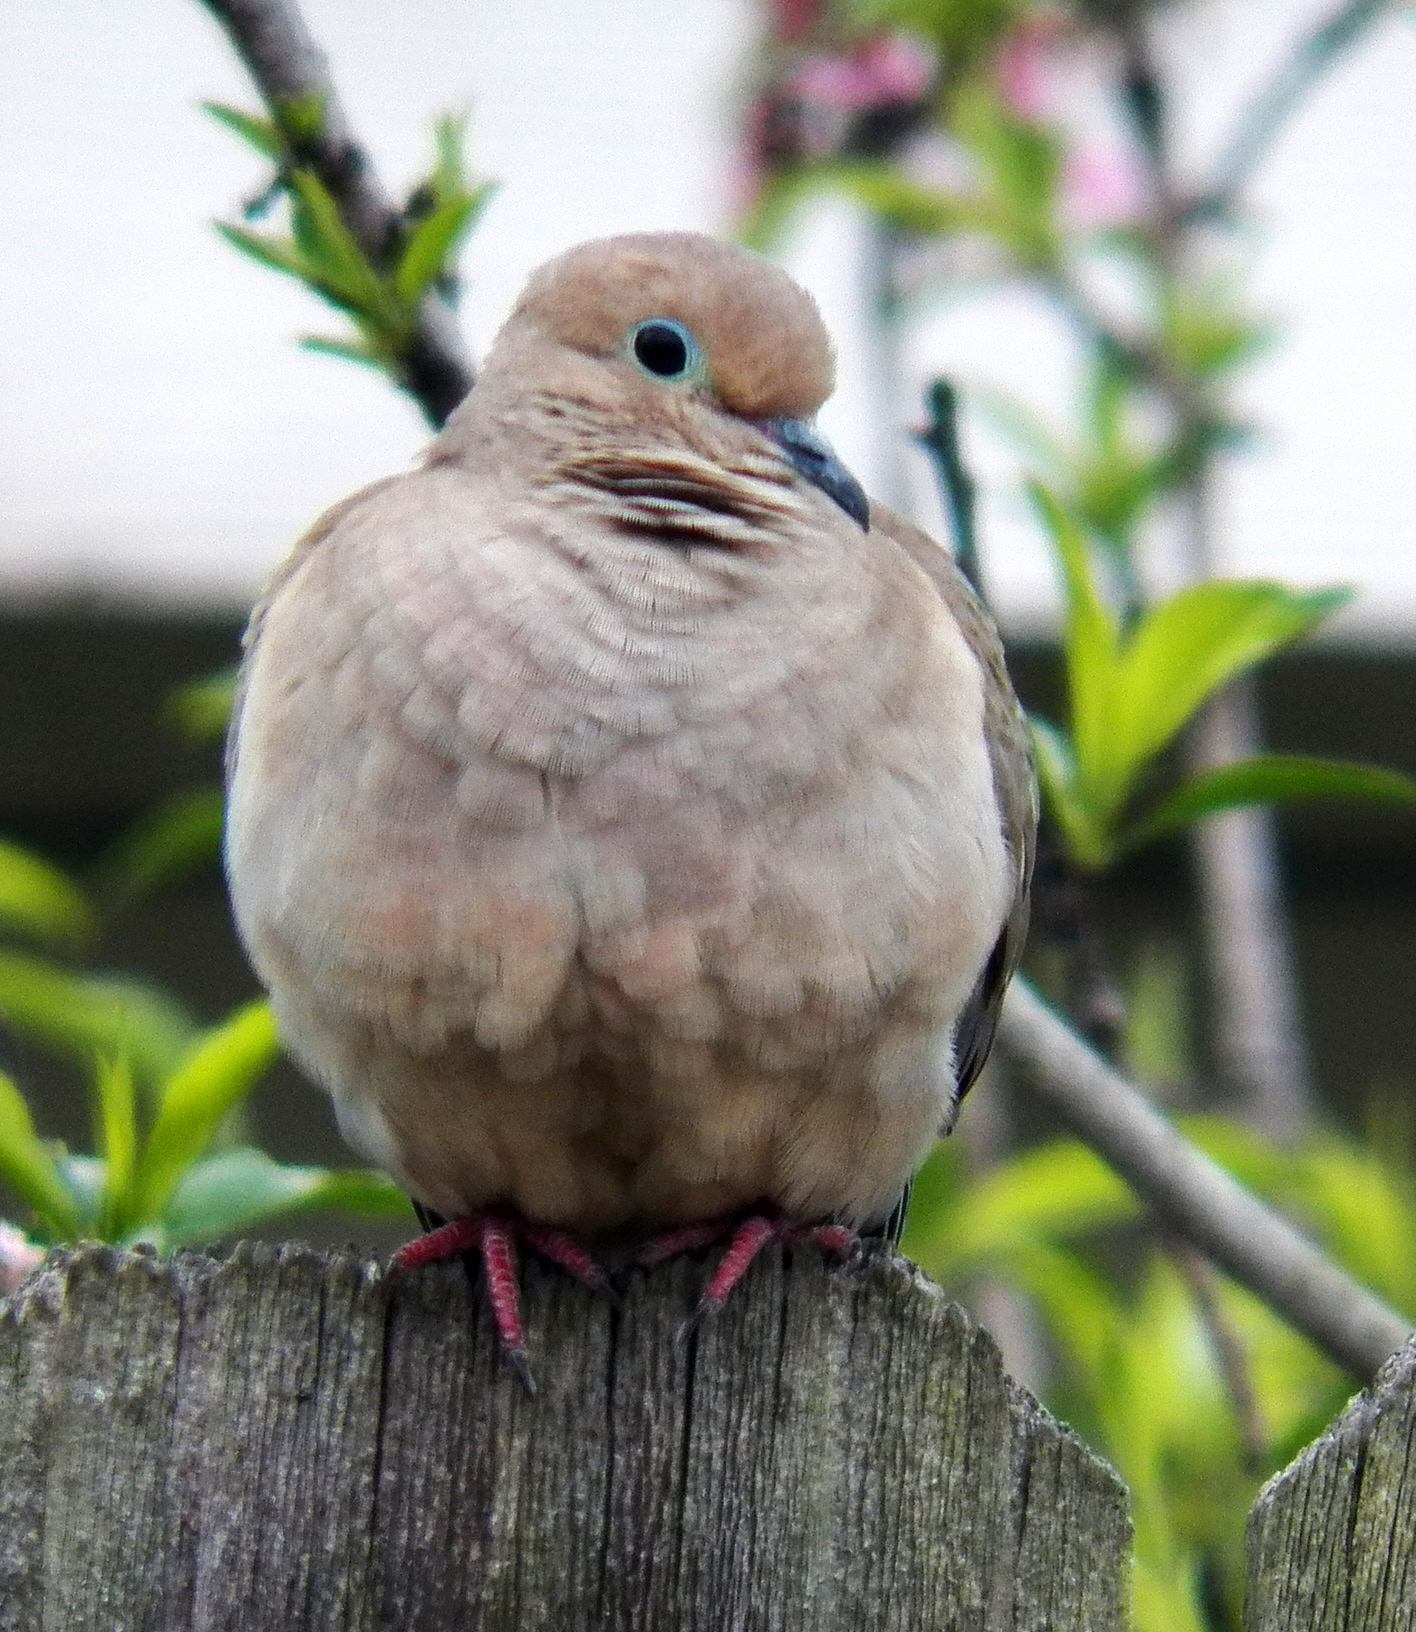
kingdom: Animalia
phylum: Chordata
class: Aves
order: Columbiformes
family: Columbidae
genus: Zenaida
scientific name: Zenaida macroura
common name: Mourning dove
